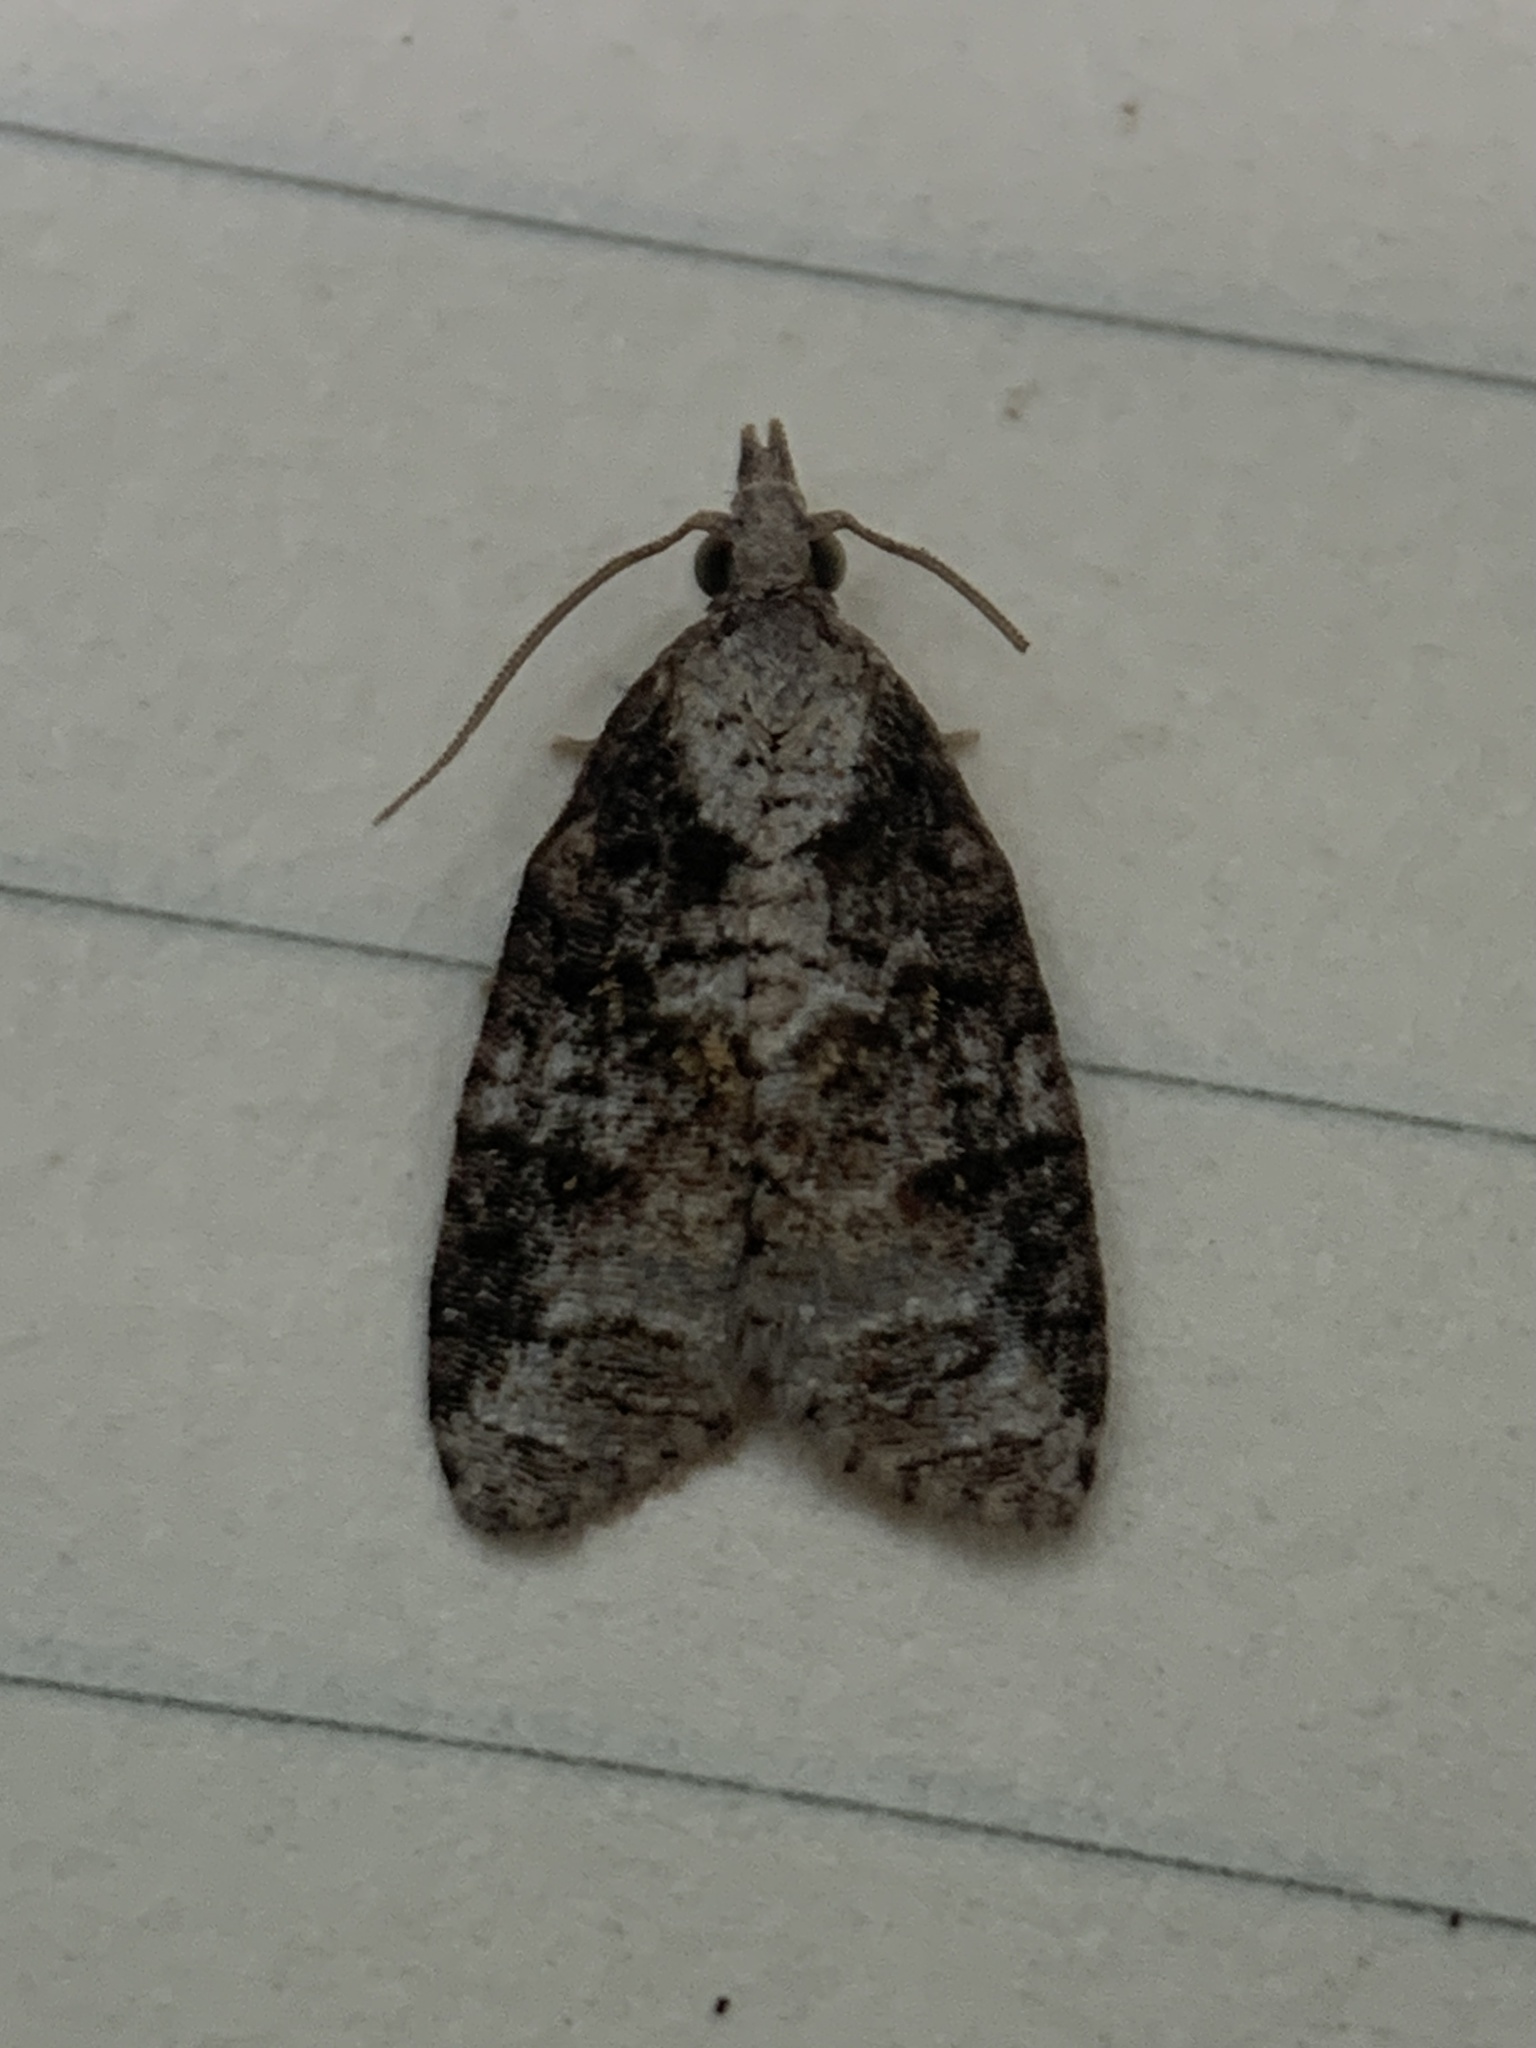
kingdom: Animalia
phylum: Arthropoda
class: Insecta
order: Lepidoptera
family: Tortricidae
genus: Platynota
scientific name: Platynota exasperatana
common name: Exasperating platynota moth
